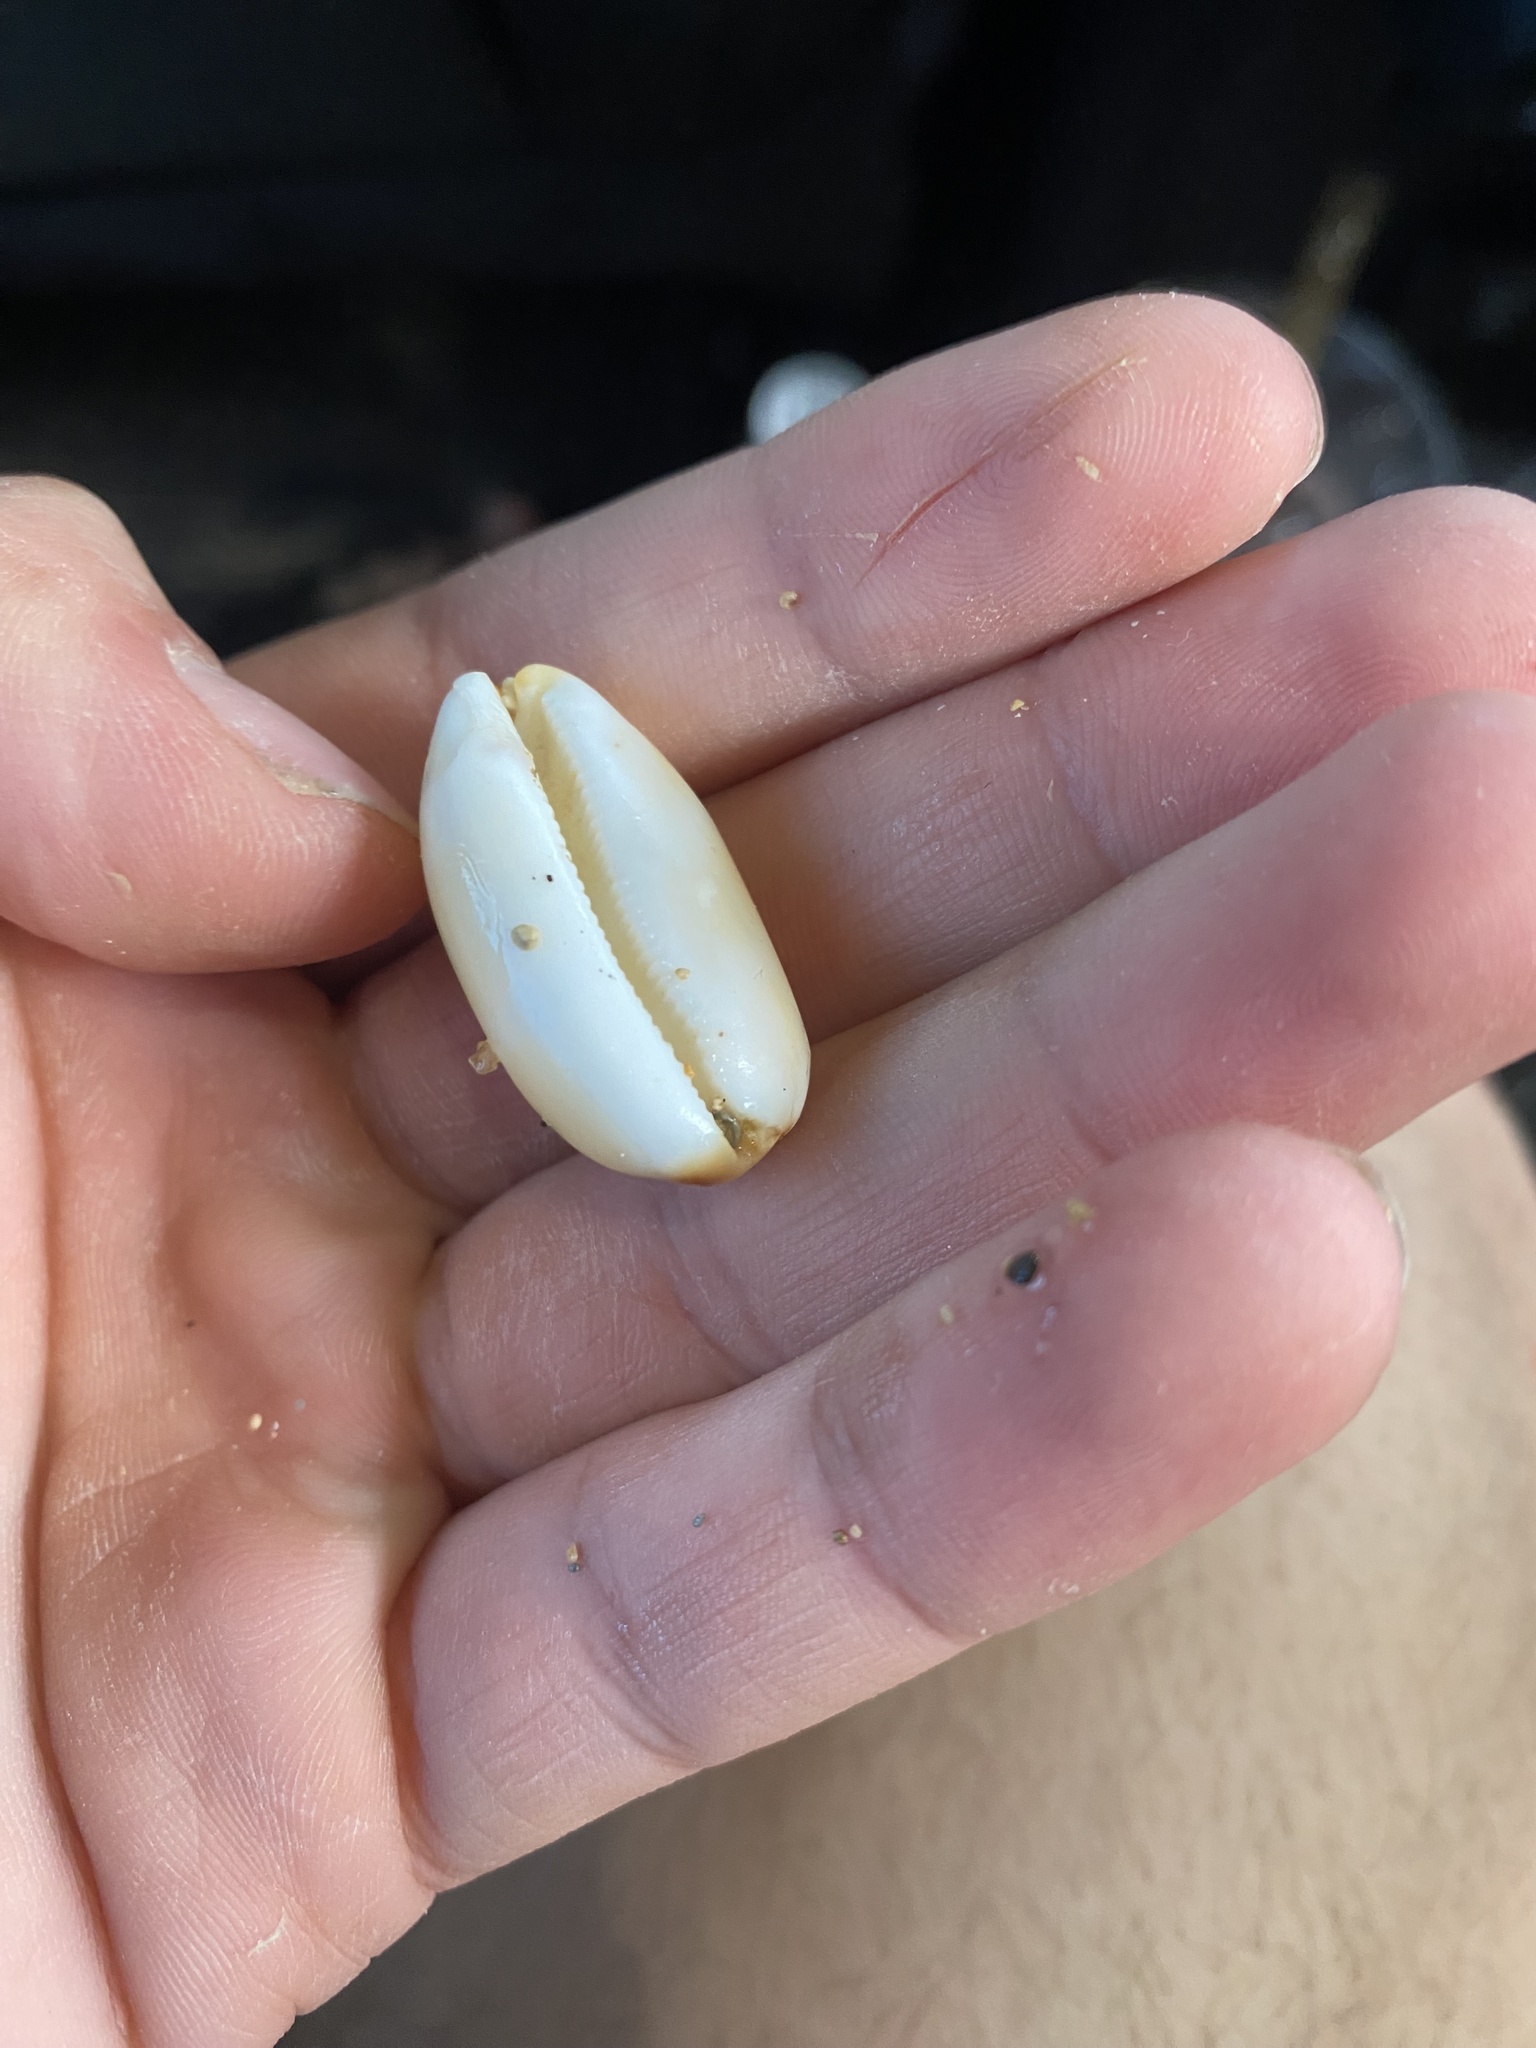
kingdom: Animalia
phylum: Mollusca
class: Gastropoda
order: Littorinimorpha
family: Cypraeidae
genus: Luria
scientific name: Luria isabella
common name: Isabell cowry
